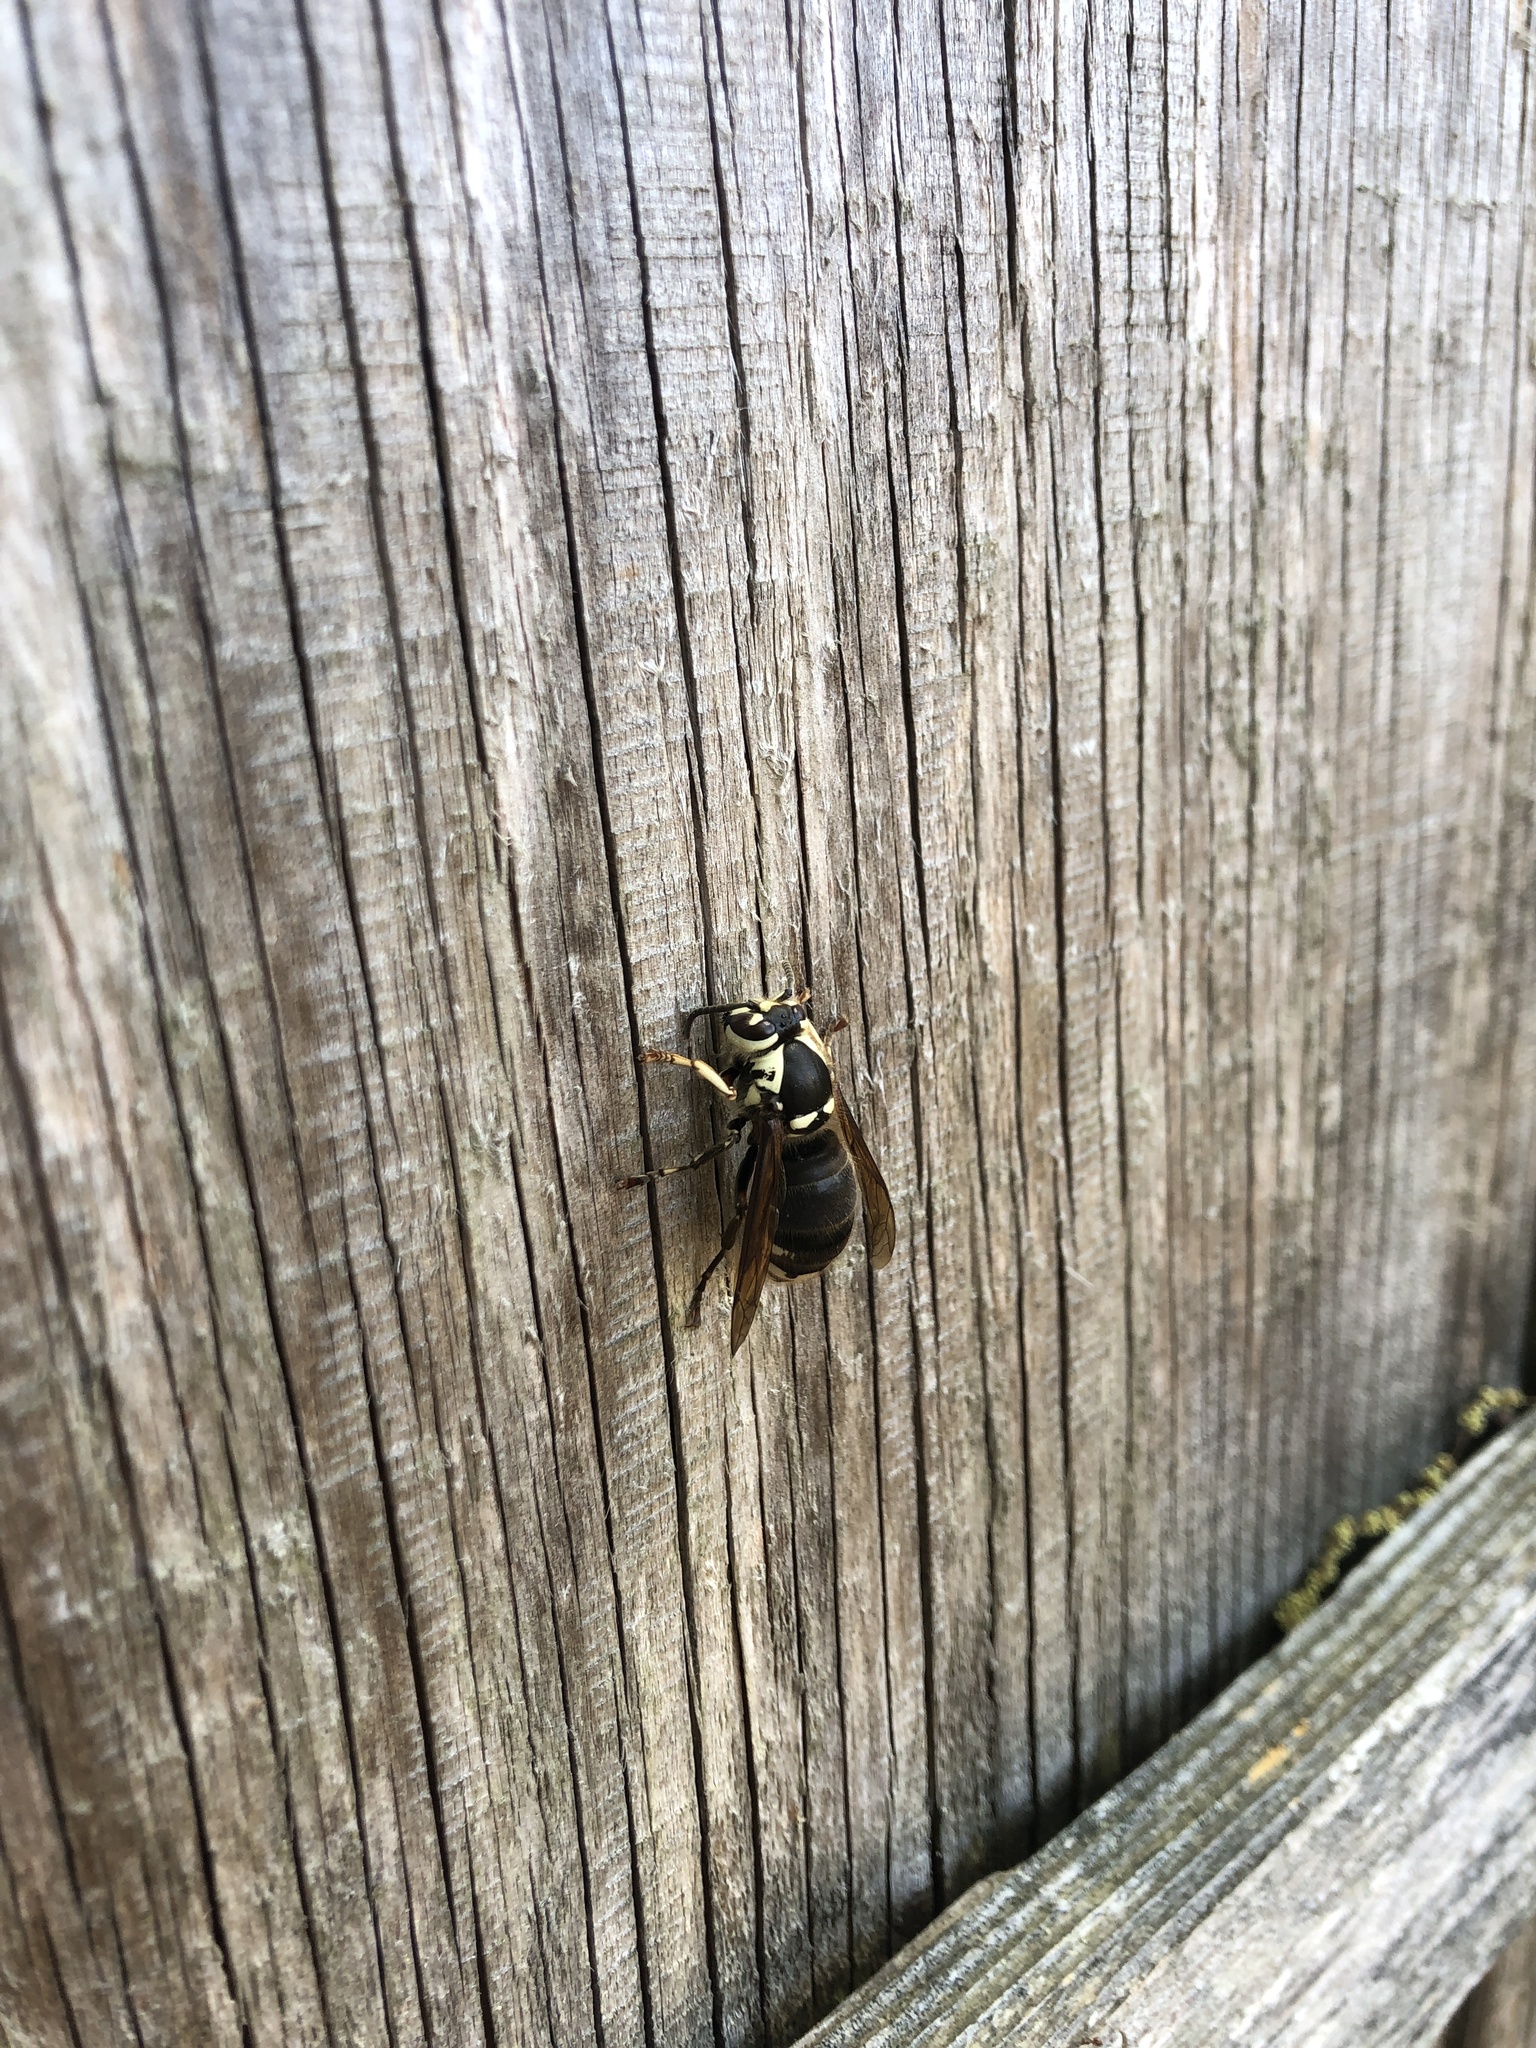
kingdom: Animalia
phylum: Arthropoda
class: Insecta
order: Hymenoptera
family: Vespidae
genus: Dolichovespula
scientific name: Dolichovespula maculata
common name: Bald-faced hornet
